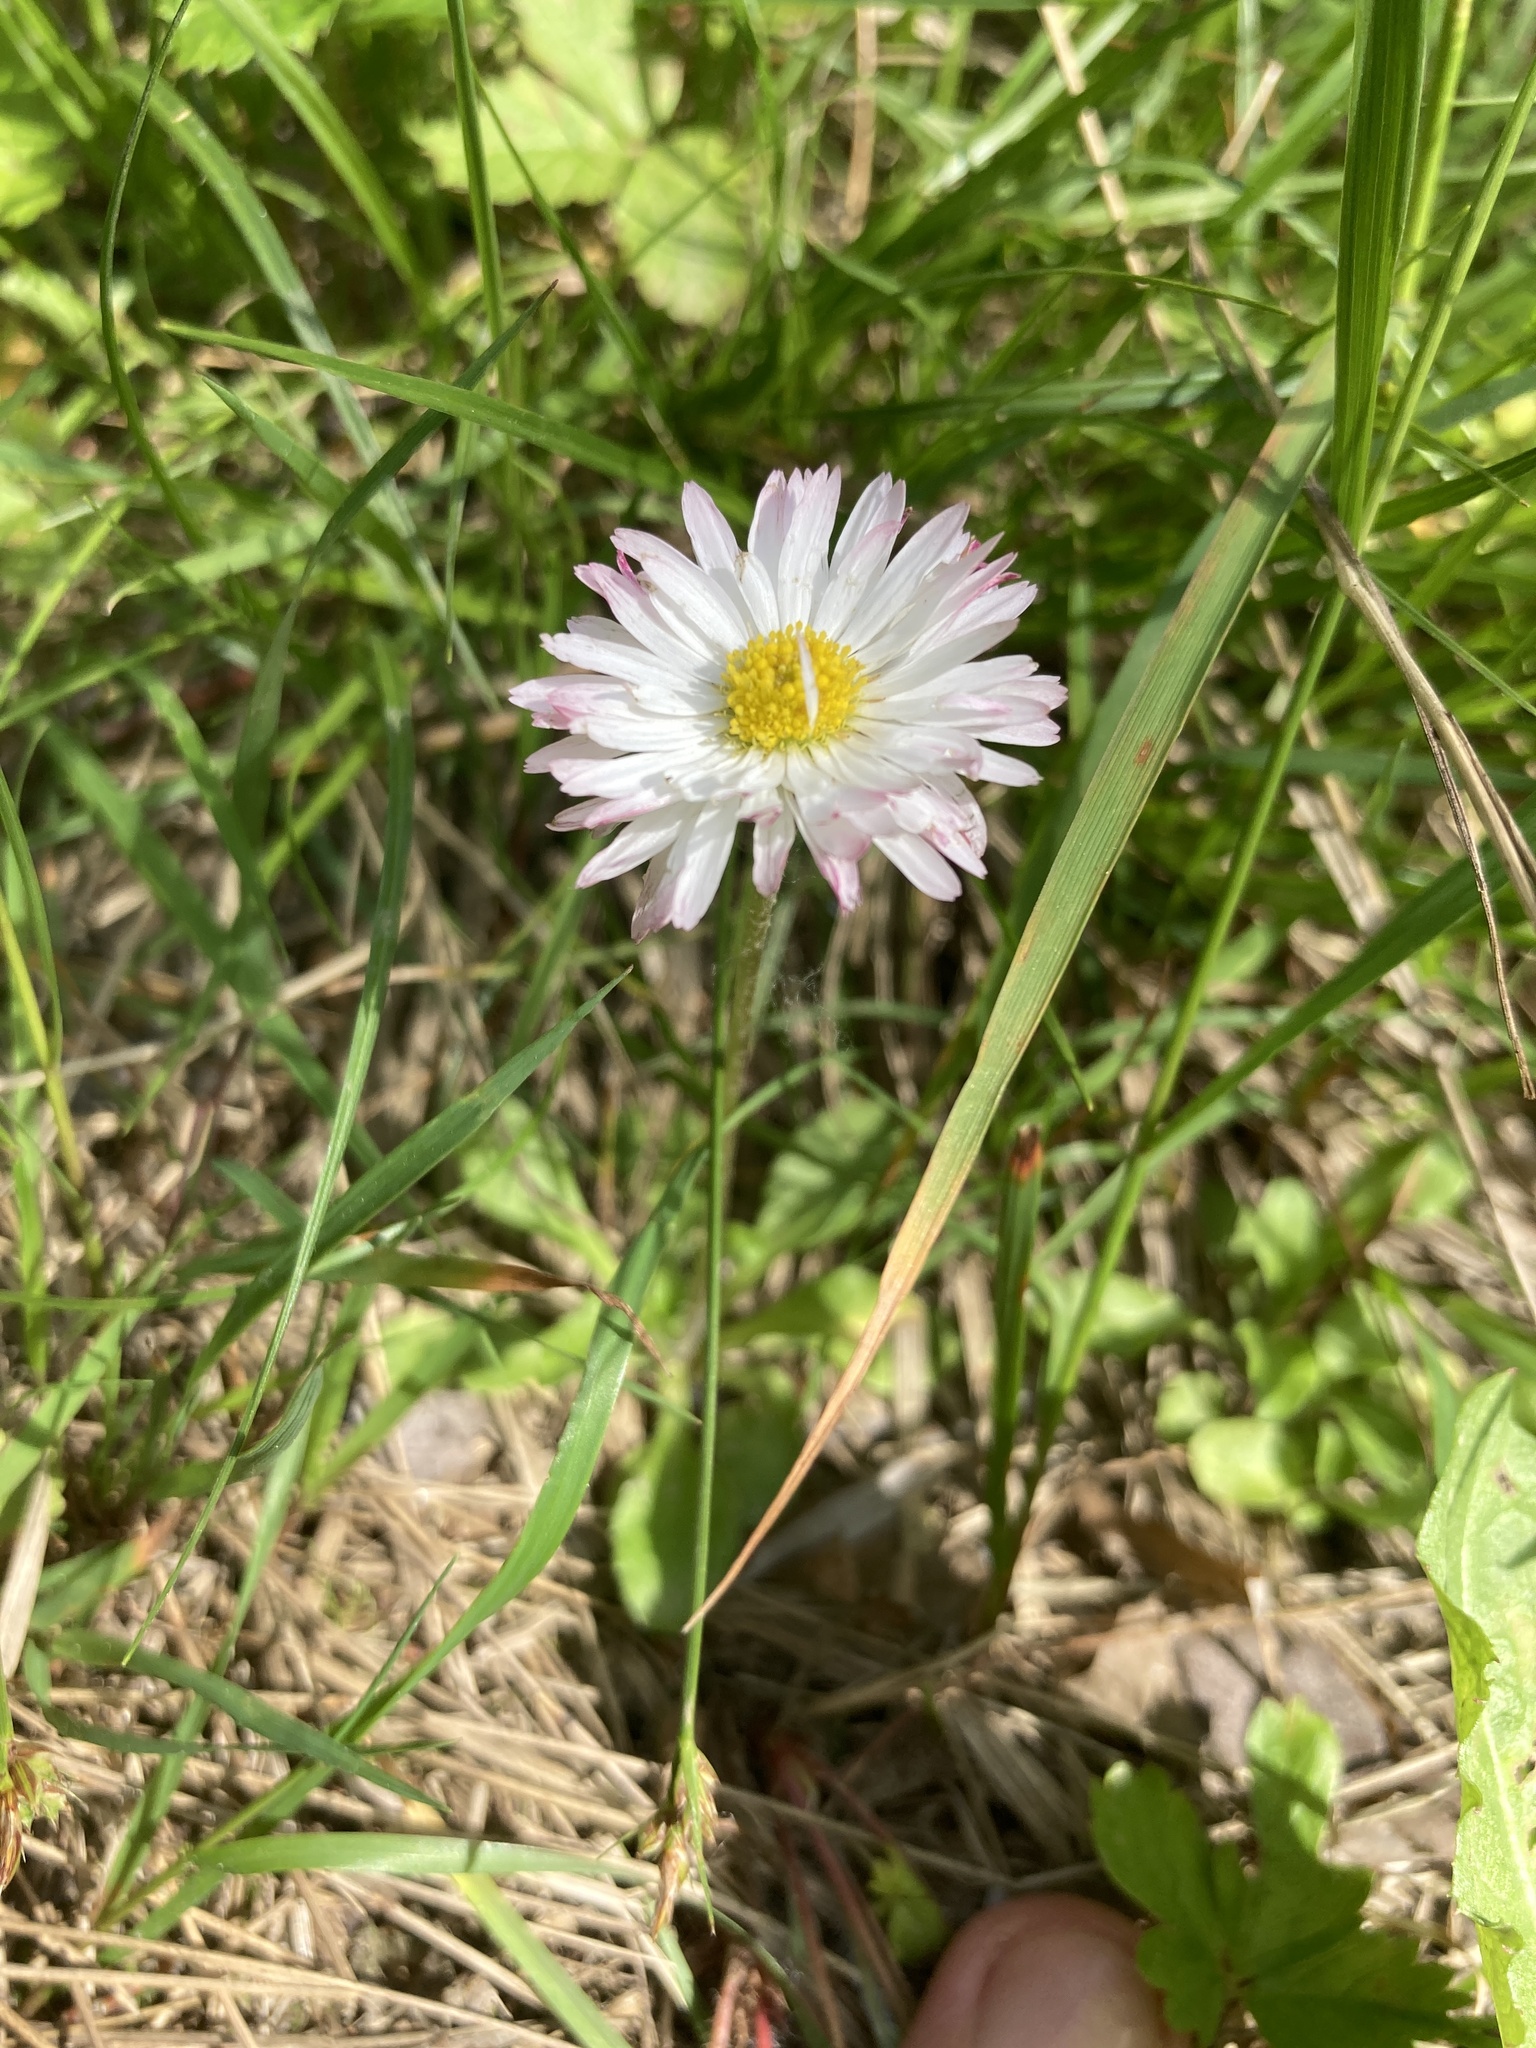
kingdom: Plantae
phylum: Tracheophyta
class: Magnoliopsida
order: Asterales
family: Asteraceae
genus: Bellis
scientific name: Bellis perennis
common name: Lawndaisy
